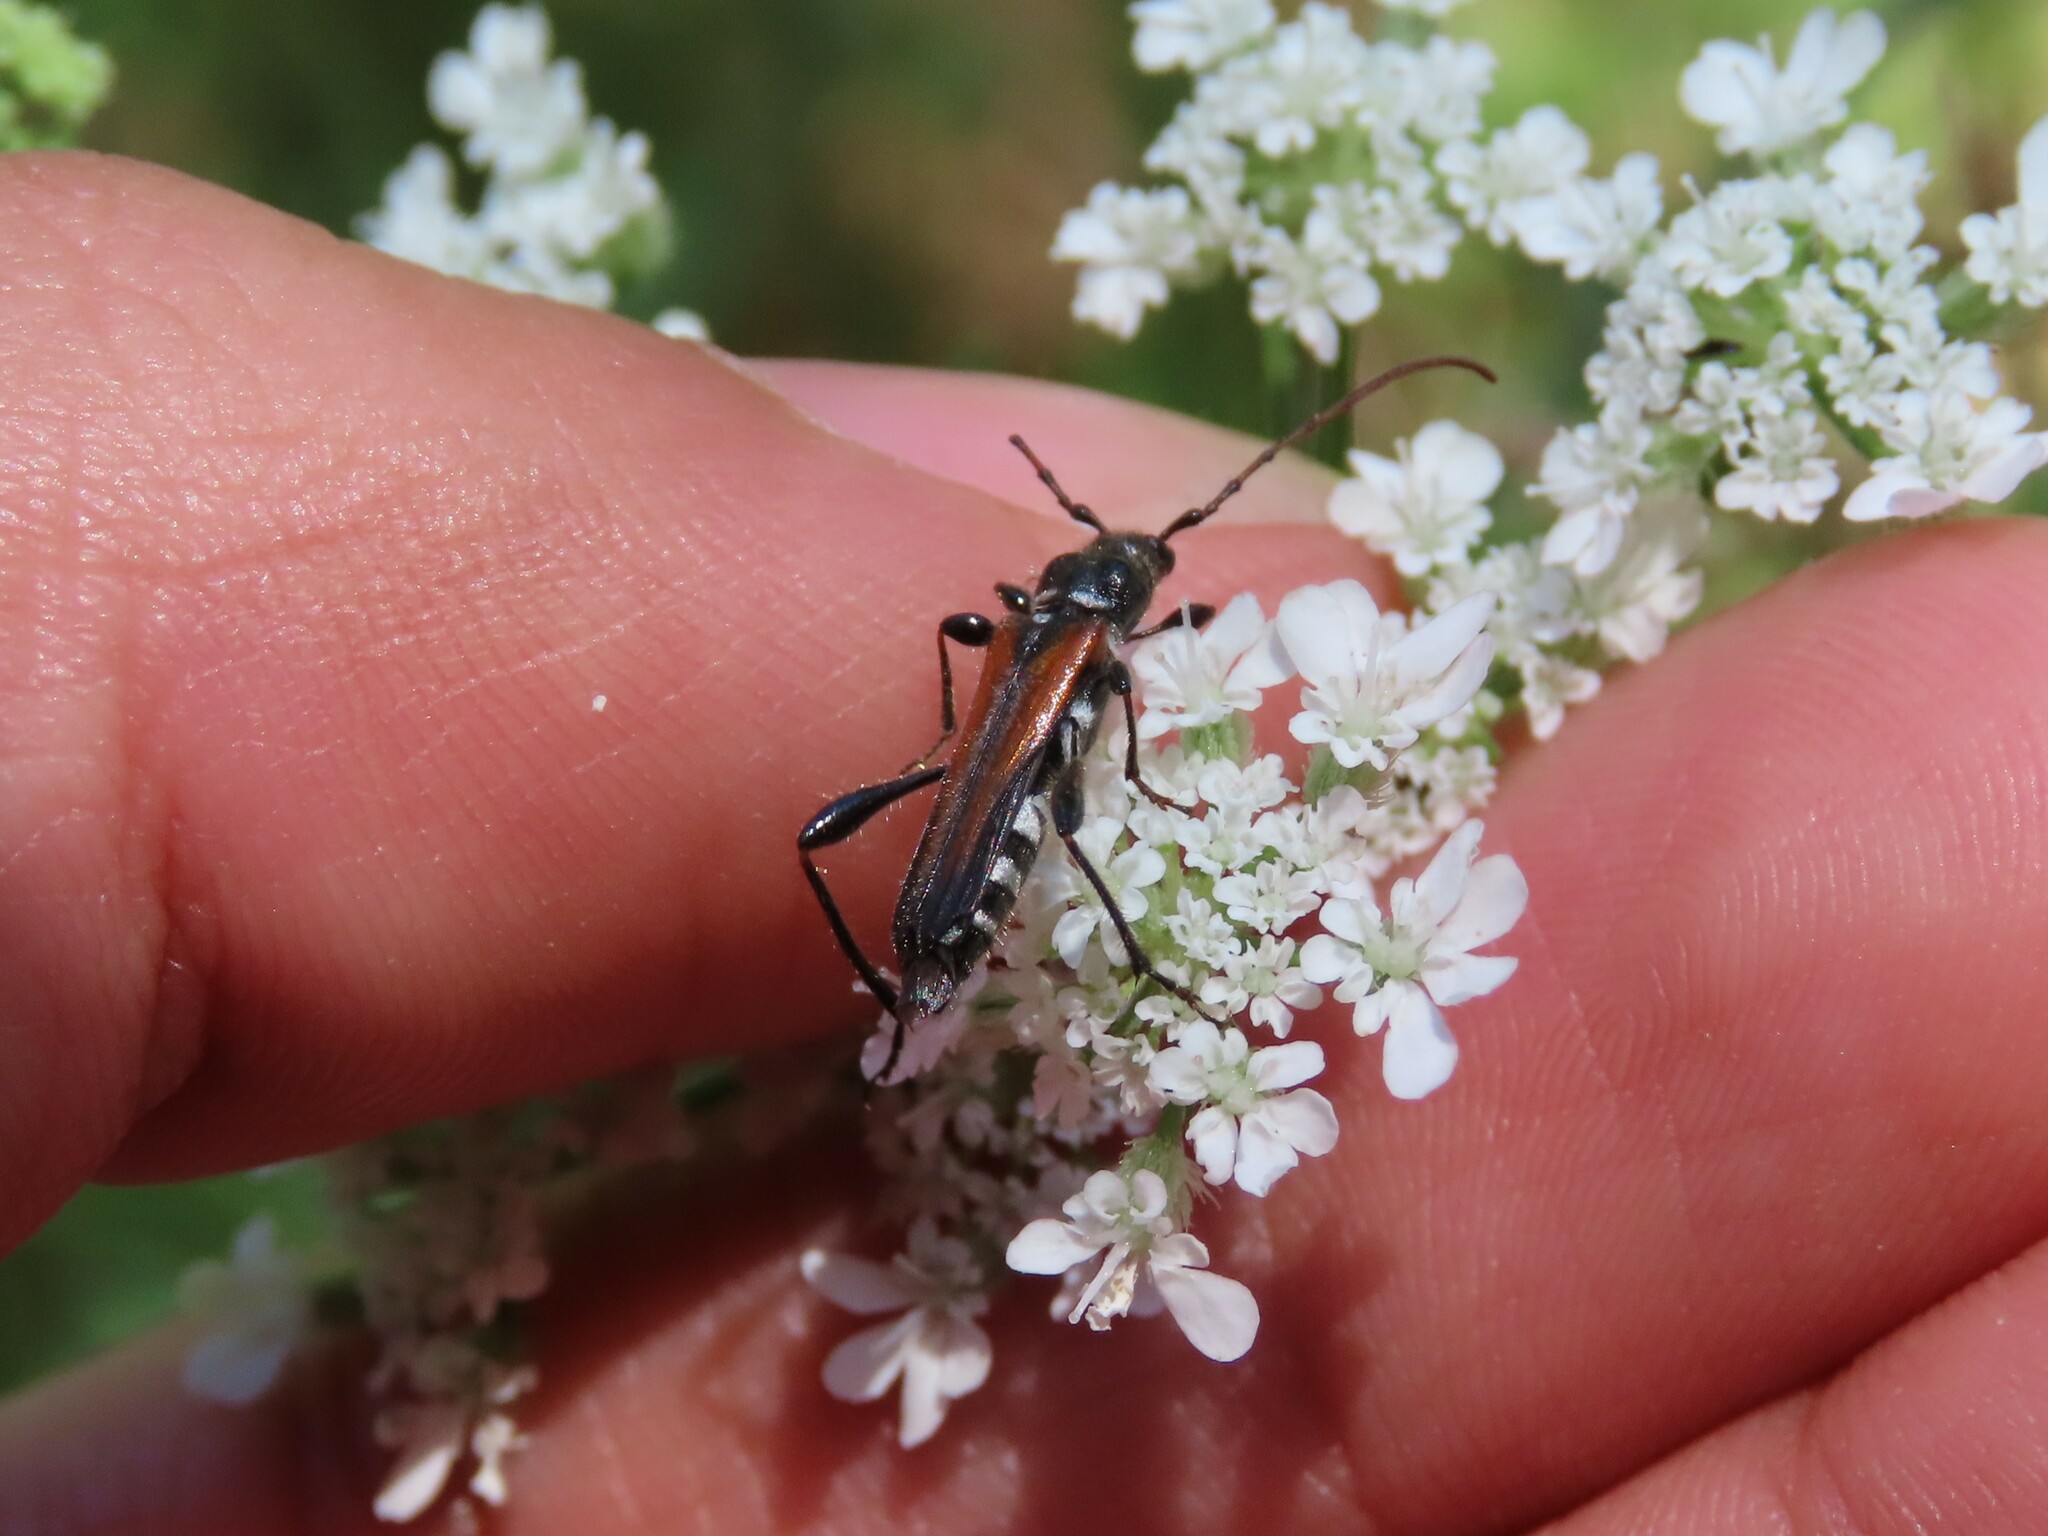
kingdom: Animalia
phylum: Arthropoda
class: Insecta
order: Coleoptera
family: Cerambycidae
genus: Stenopterus
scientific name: Stenopterus ater
